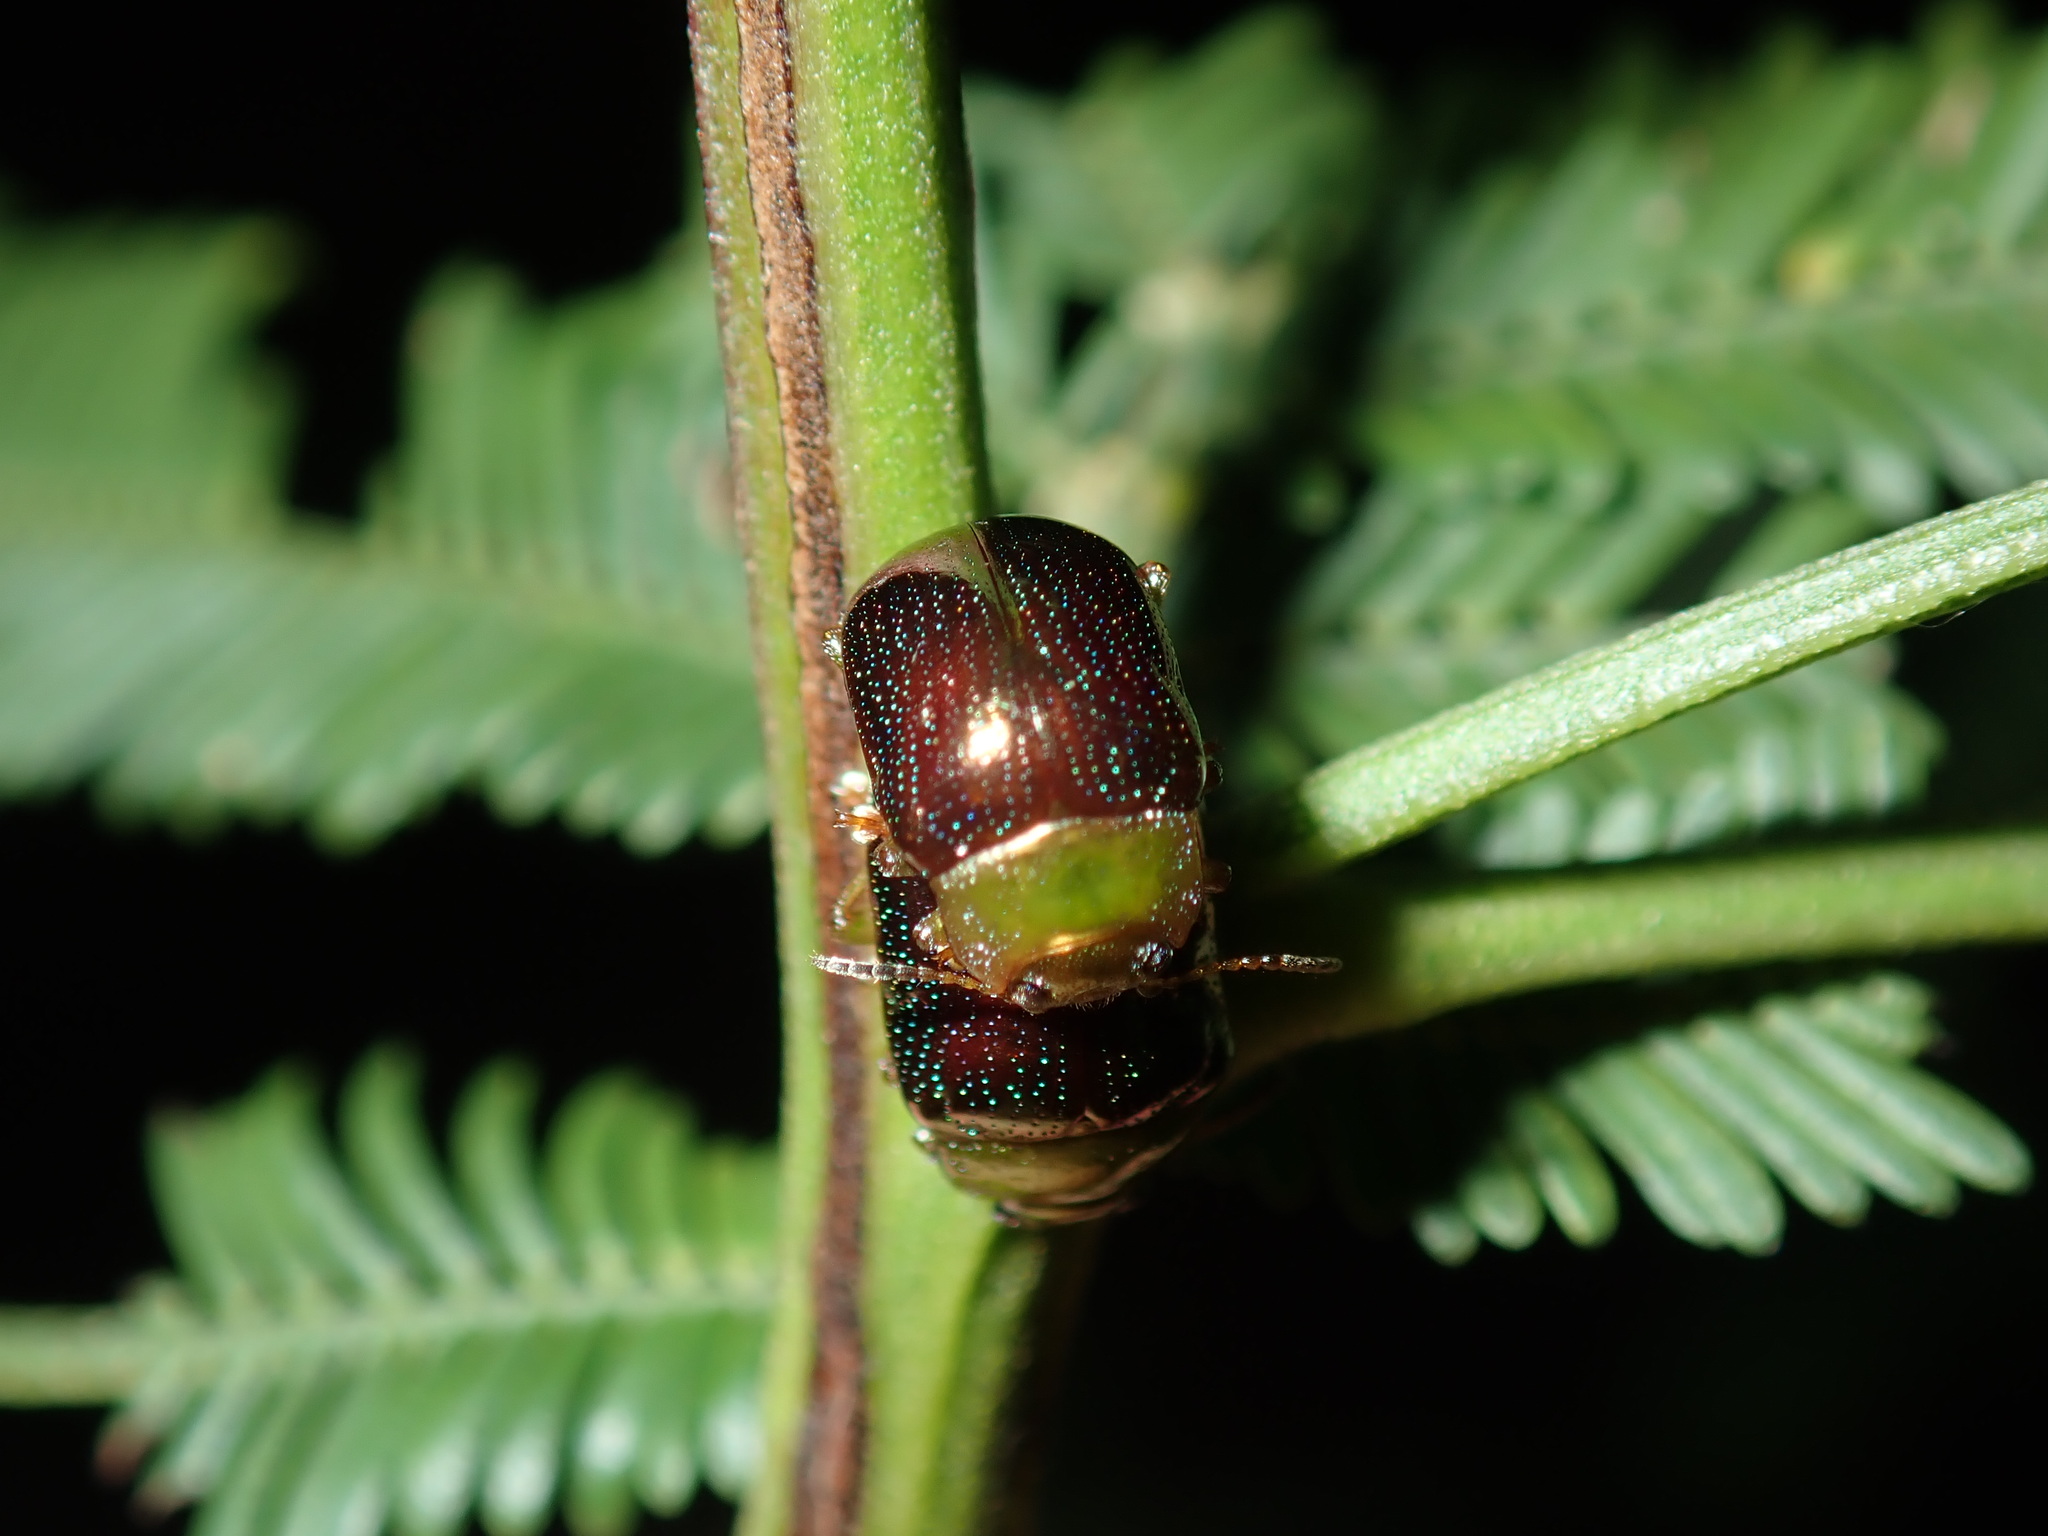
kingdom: Animalia
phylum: Arthropoda
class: Insecta
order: Coleoptera
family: Chrysomelidae
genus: Calomela
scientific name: Calomela
